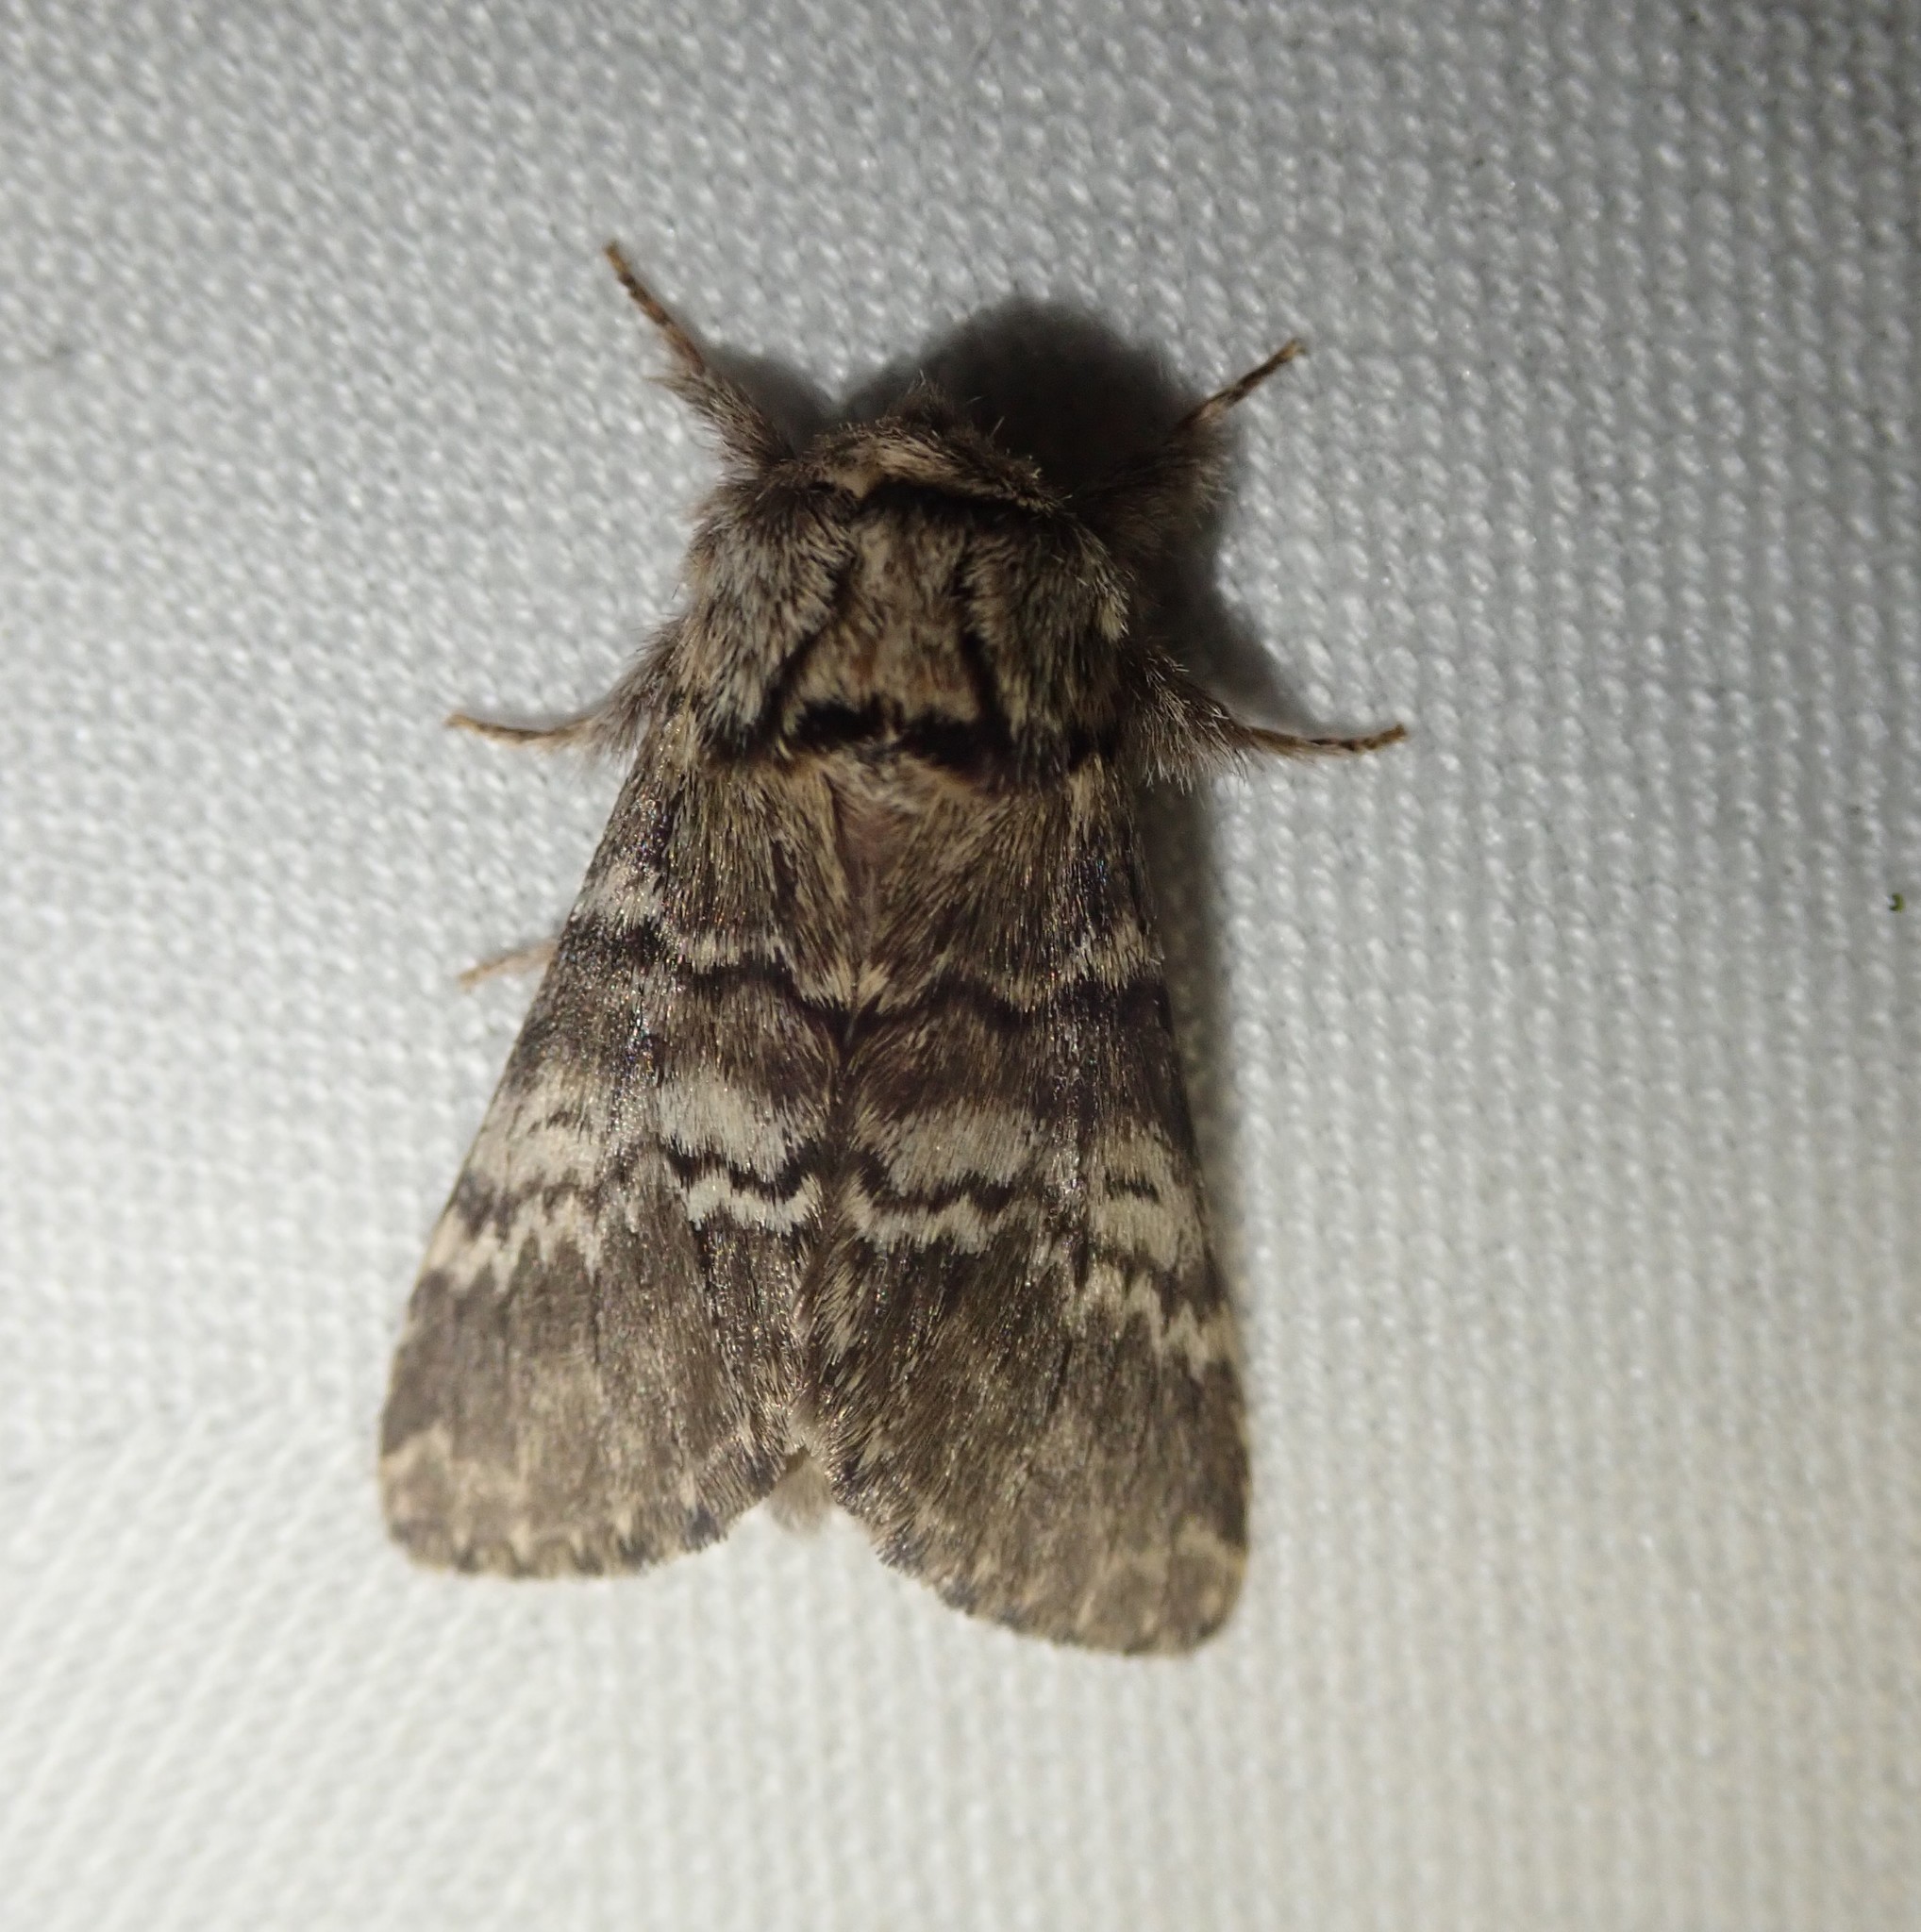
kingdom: Animalia
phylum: Arthropoda
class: Insecta
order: Lepidoptera
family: Notodontidae
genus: Drymonia
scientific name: Drymonia ruficornis
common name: Lunar marbled brown
